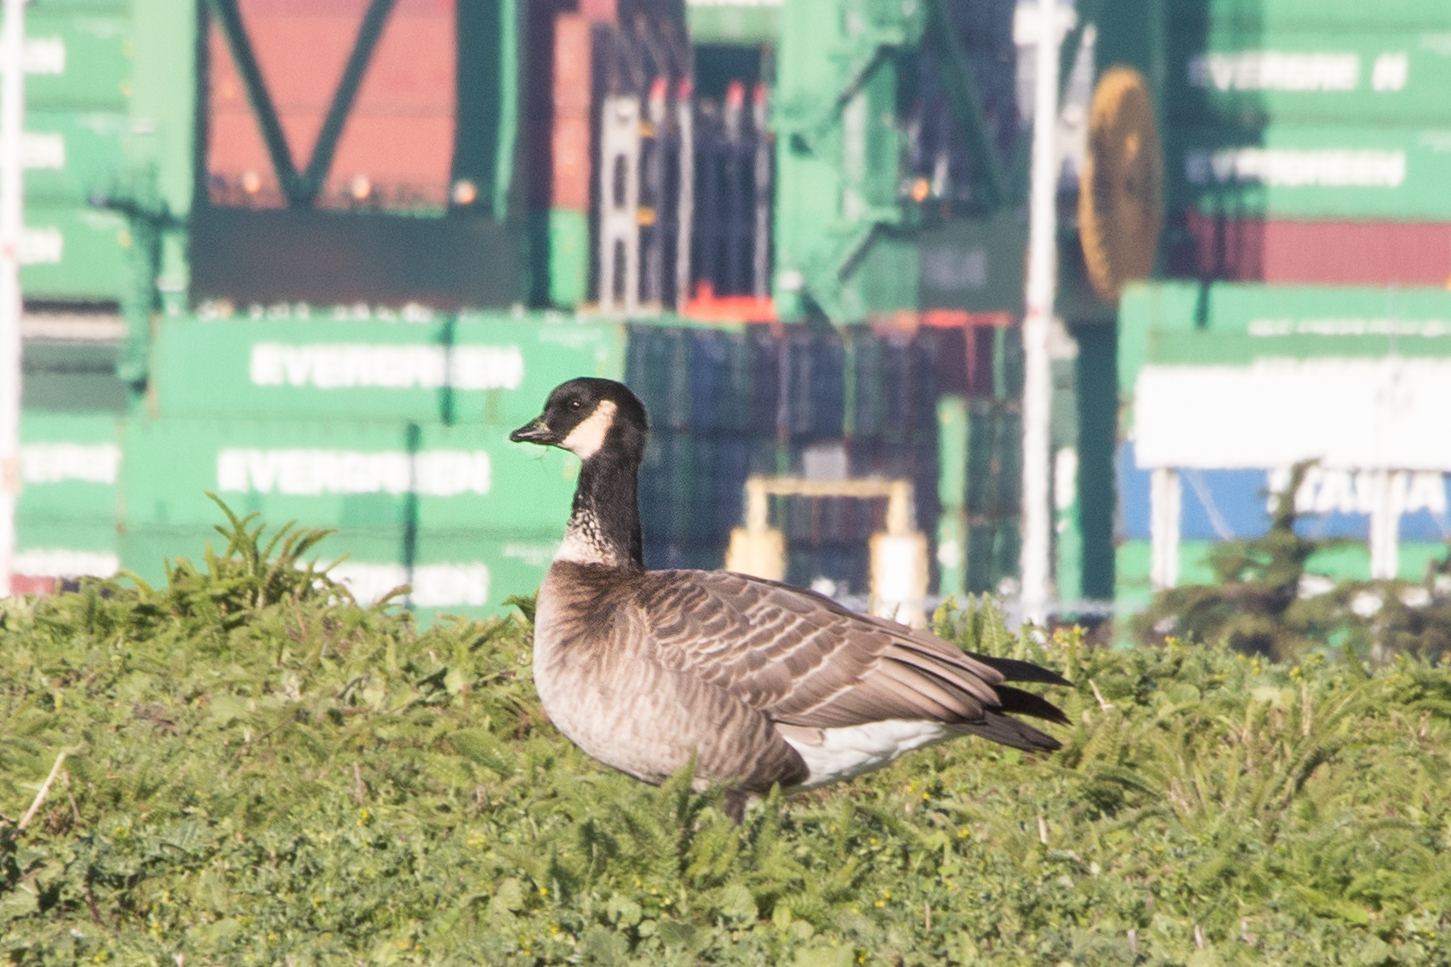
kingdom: Animalia
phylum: Chordata
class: Aves
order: Anseriformes
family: Anatidae
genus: Branta
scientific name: Branta hutchinsii
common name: Cackling goose
